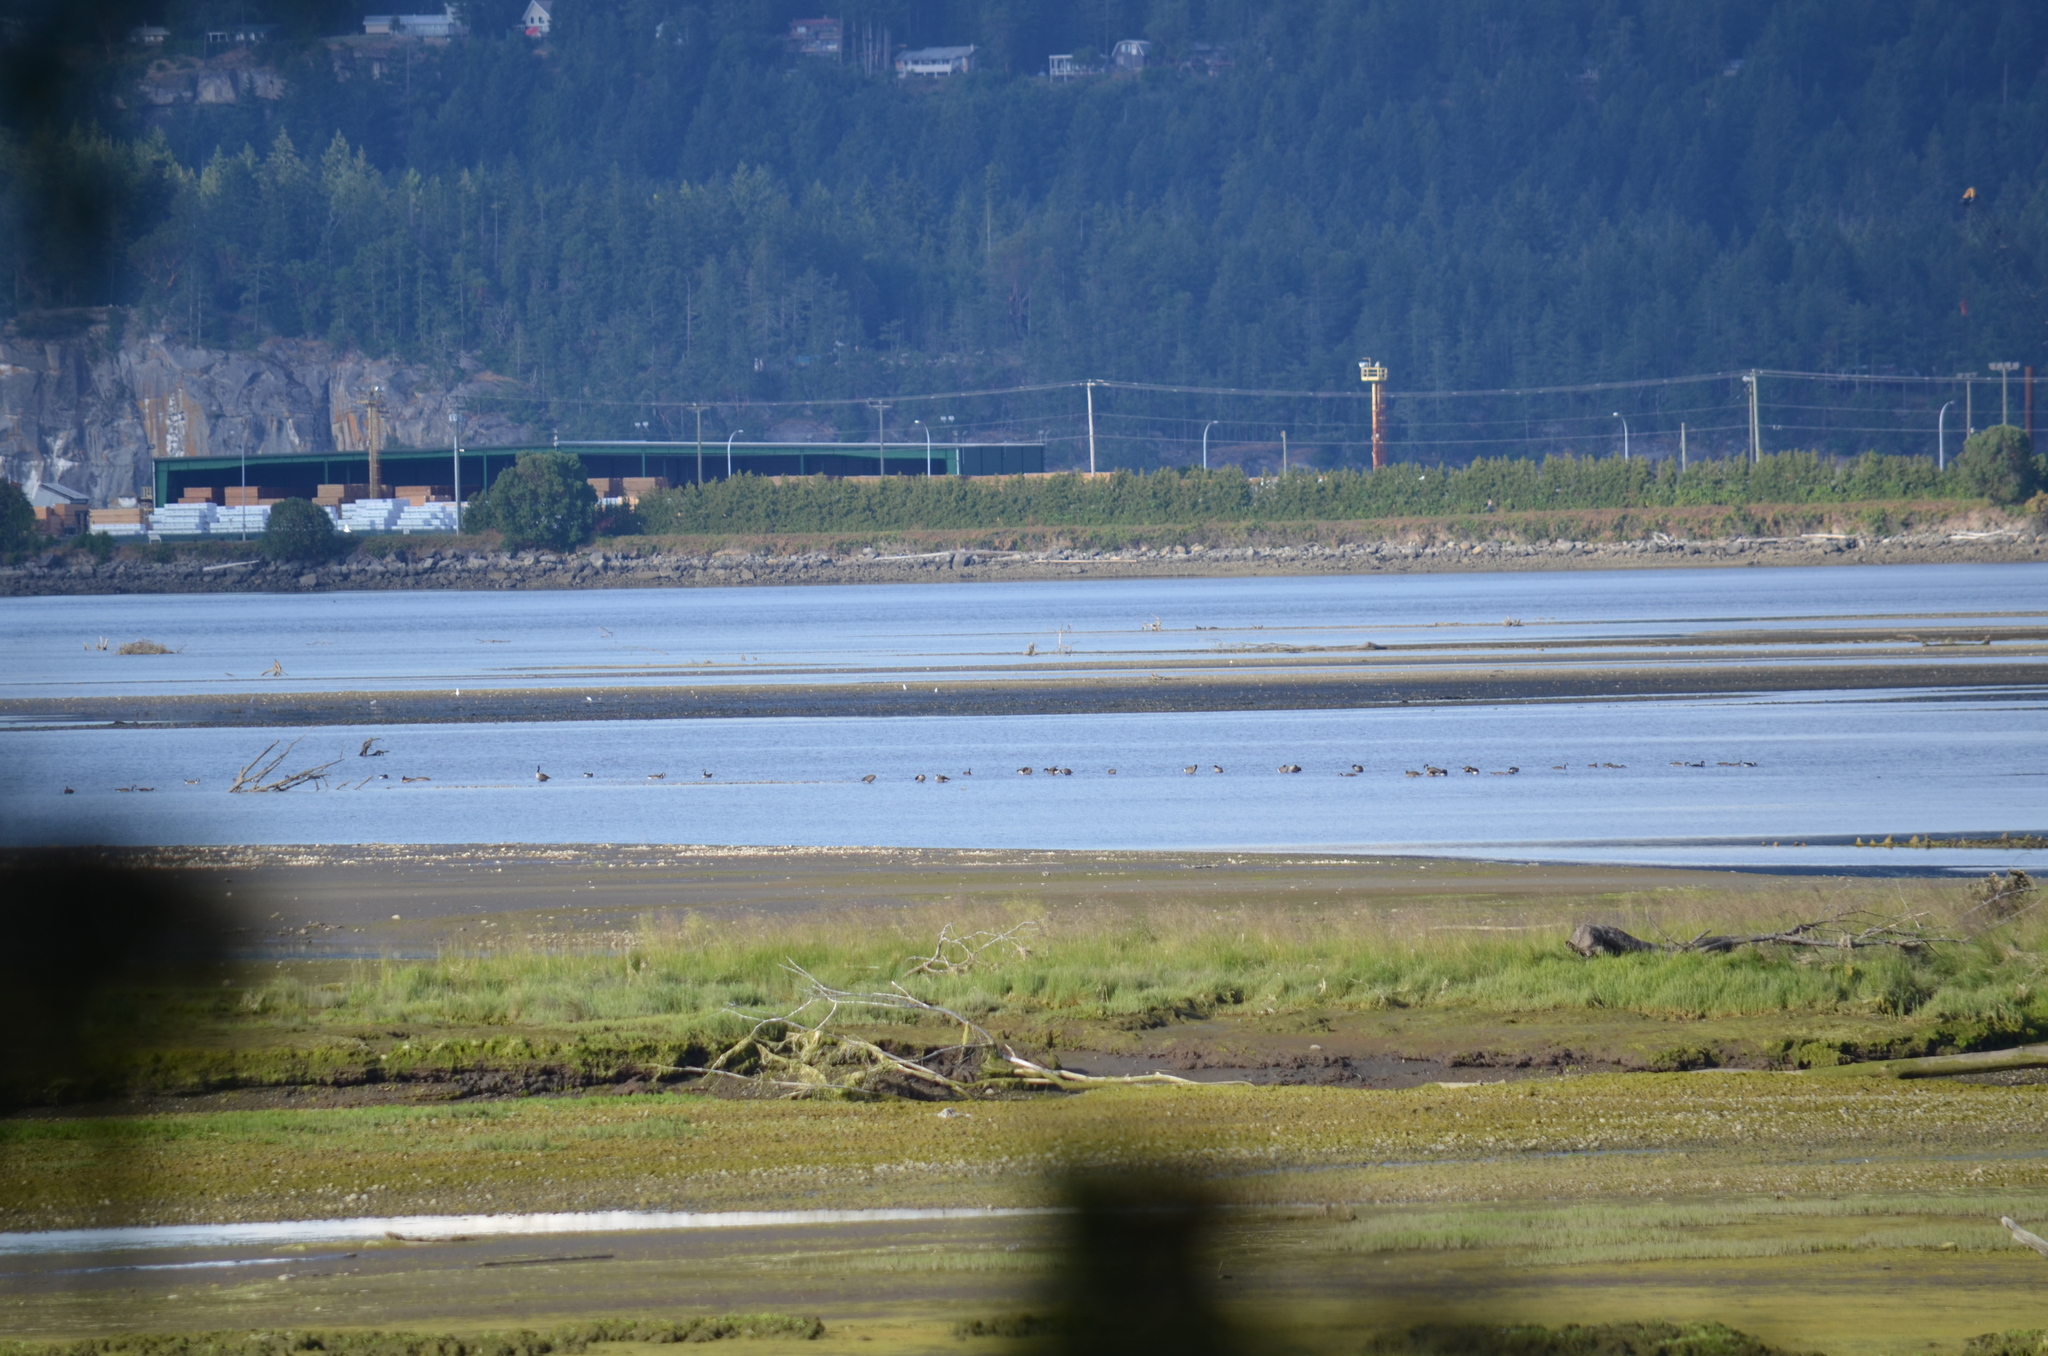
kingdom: Animalia
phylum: Chordata
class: Aves
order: Anseriformes
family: Anatidae
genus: Branta
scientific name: Branta canadensis
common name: Canada goose
